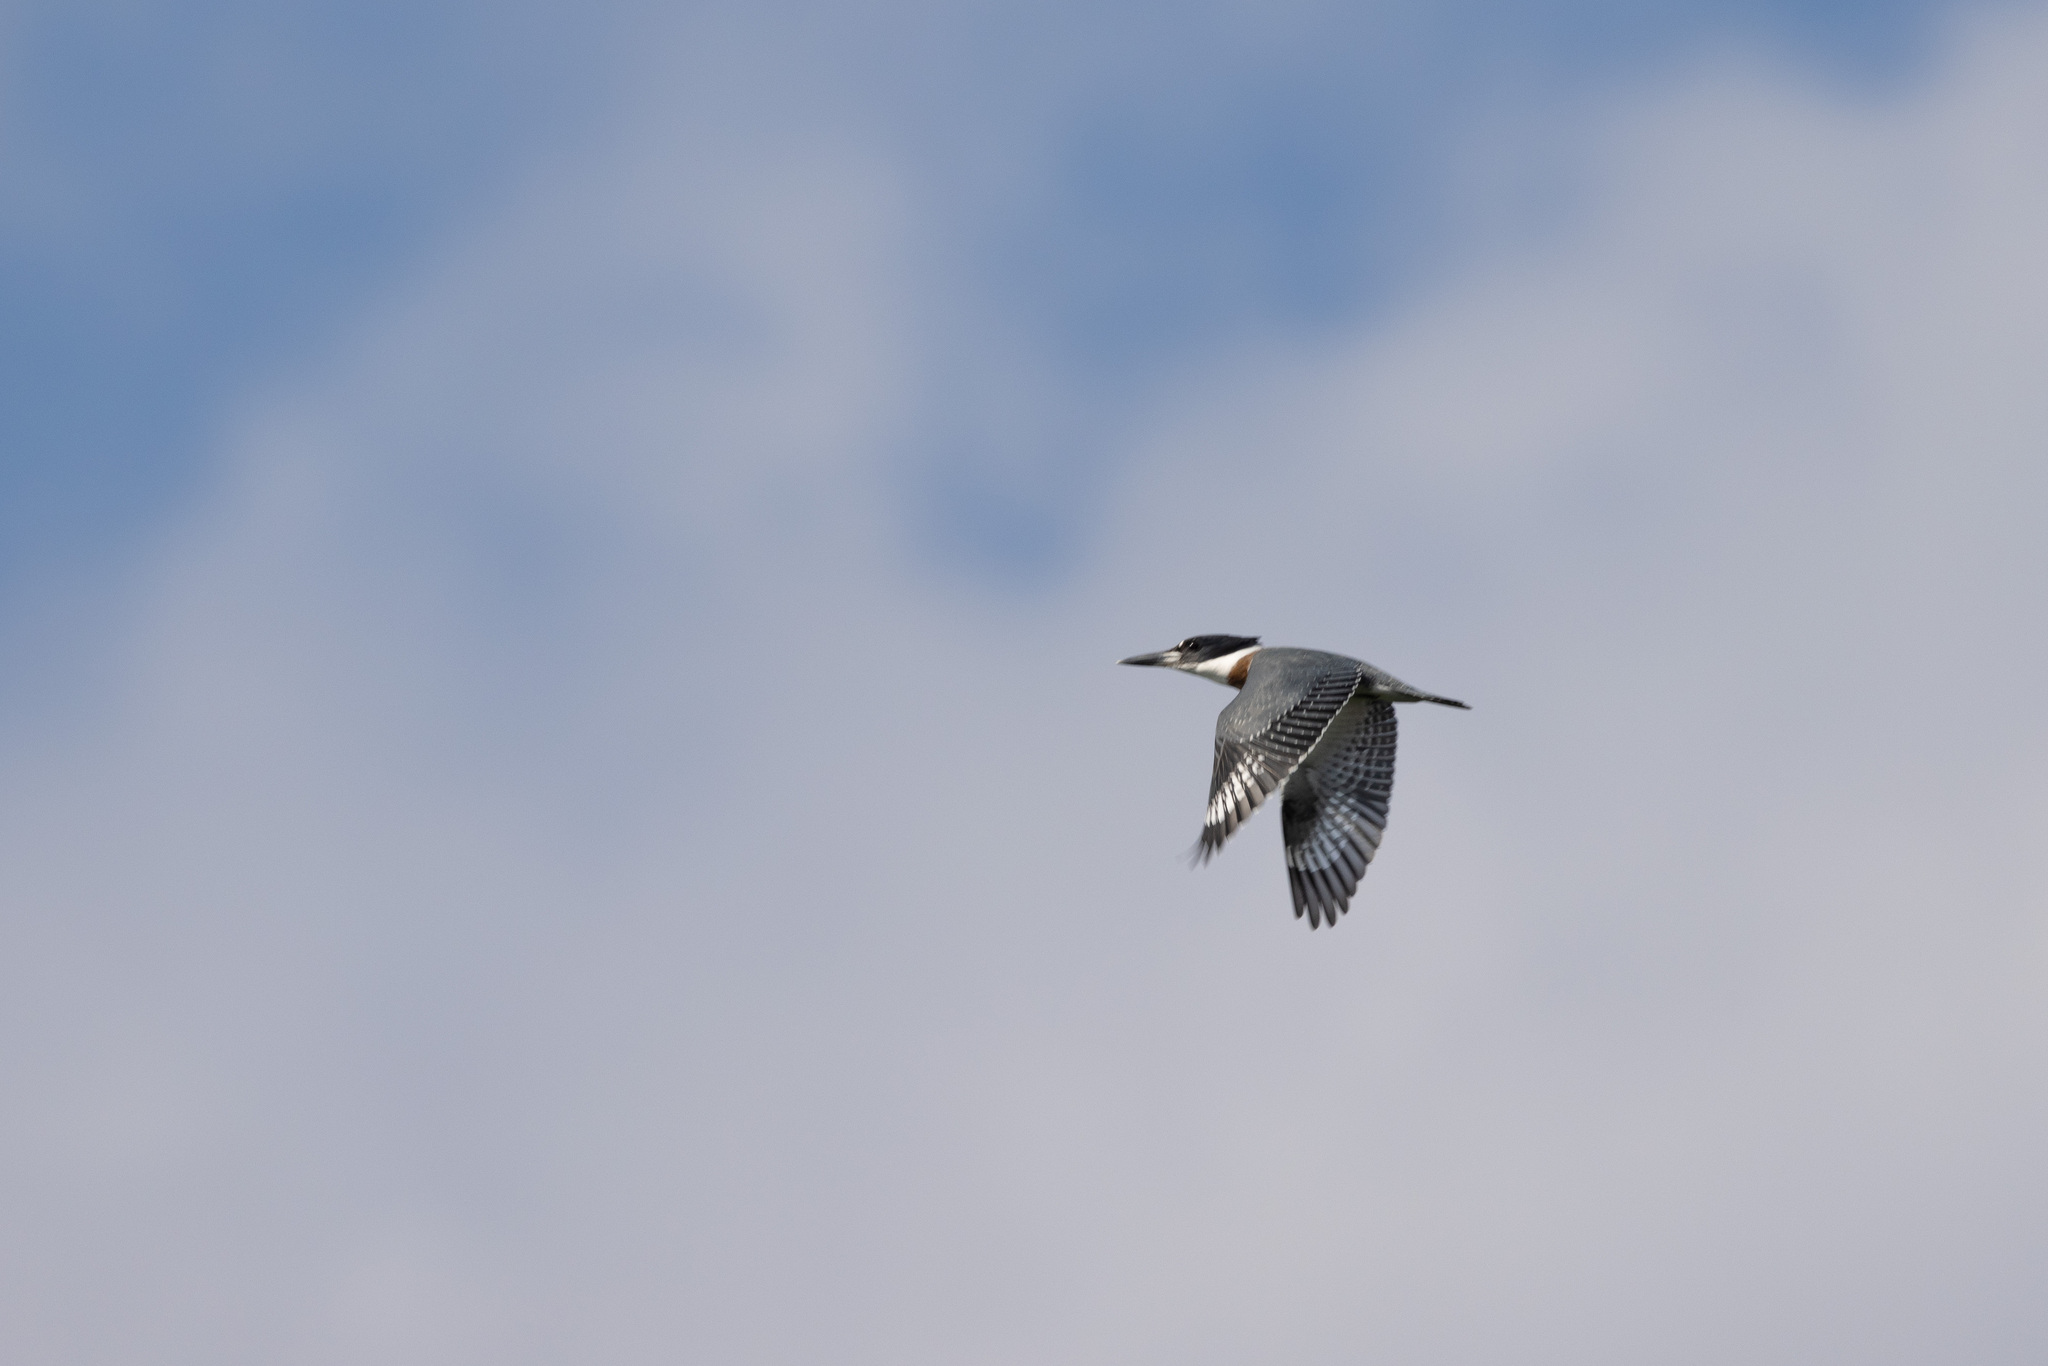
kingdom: Animalia
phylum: Chordata
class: Aves
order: Coraciiformes
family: Alcedinidae
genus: Megaceryle
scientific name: Megaceryle alcyon
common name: Belted kingfisher
